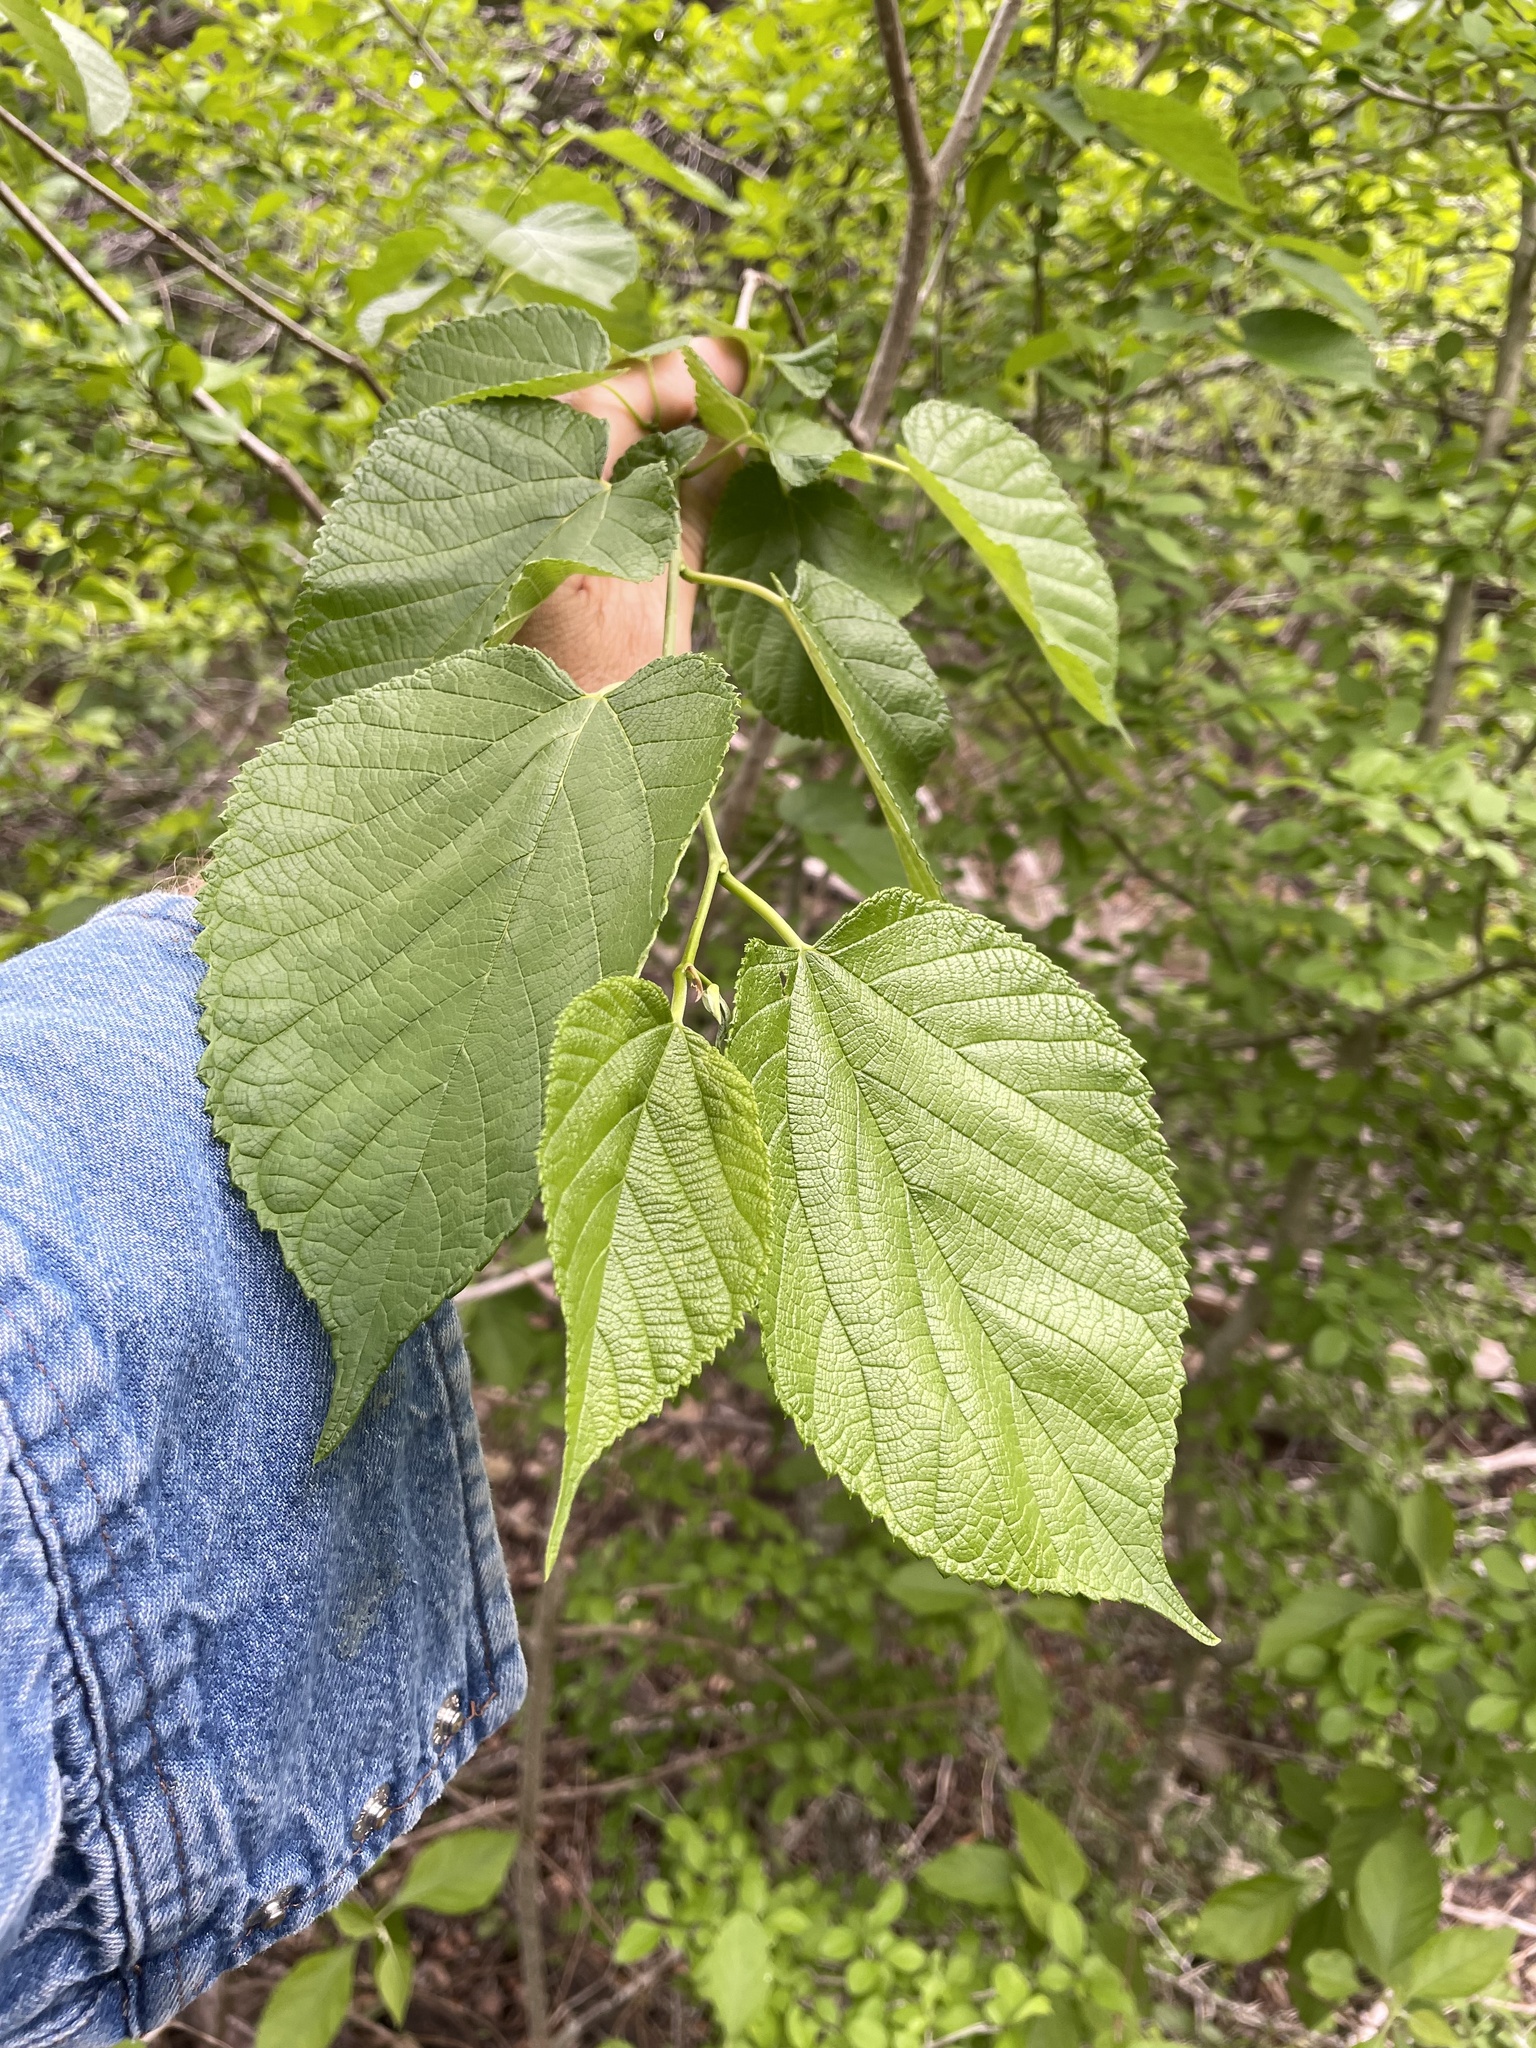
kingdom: Plantae
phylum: Tracheophyta
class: Magnoliopsida
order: Rosales
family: Moraceae
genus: Morus
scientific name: Morus rubra
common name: Red mulberry
